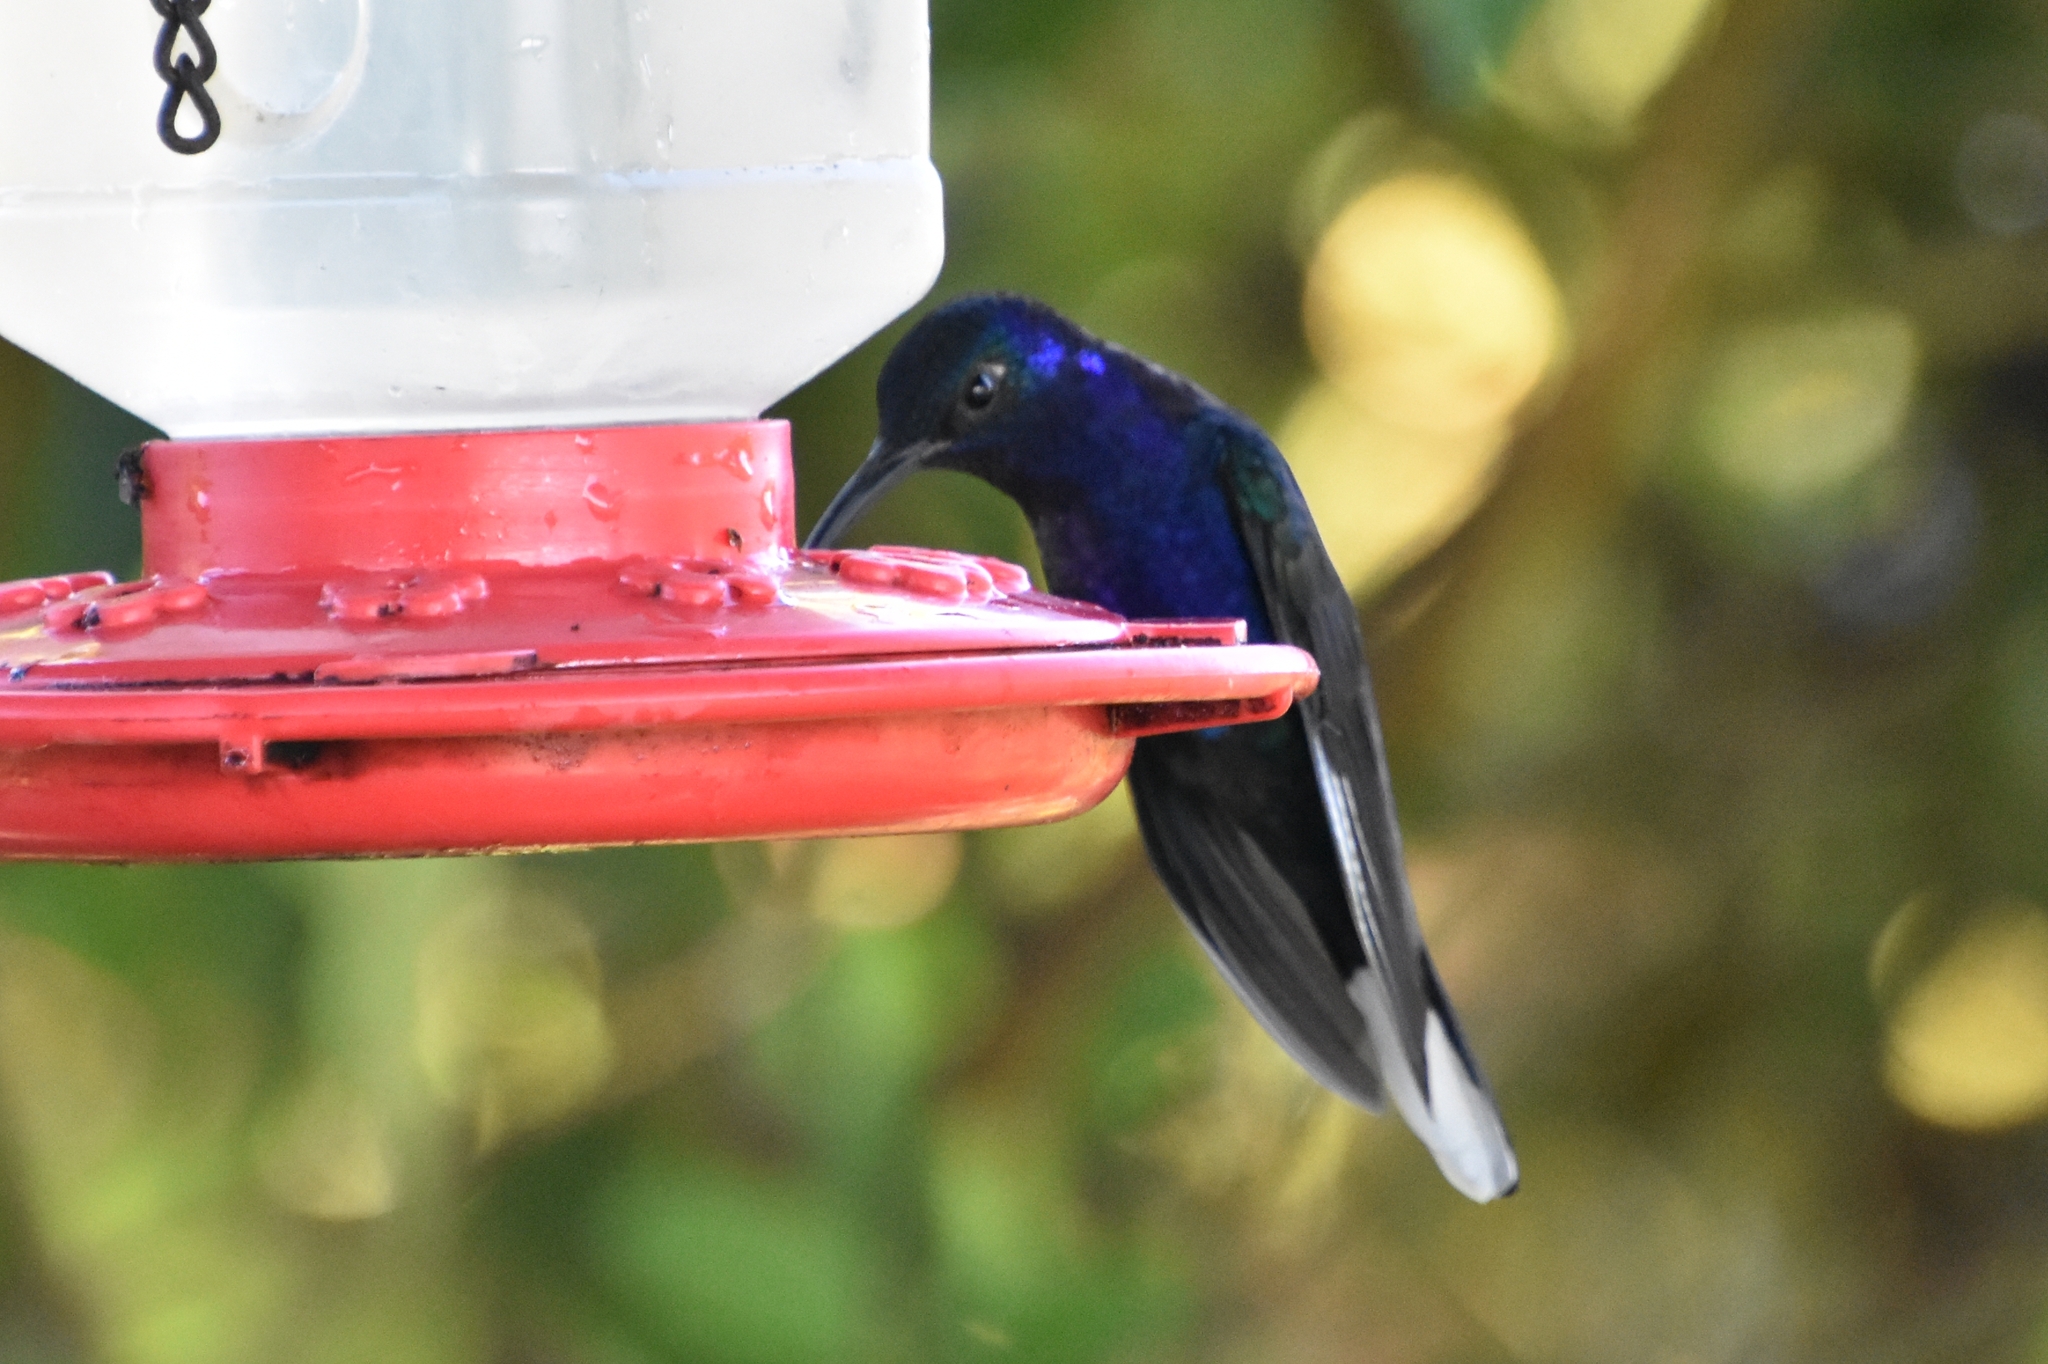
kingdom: Animalia
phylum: Chordata
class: Aves
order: Apodiformes
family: Trochilidae
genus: Campylopterus
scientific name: Campylopterus hemileucurus
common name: Violet sabrewing
